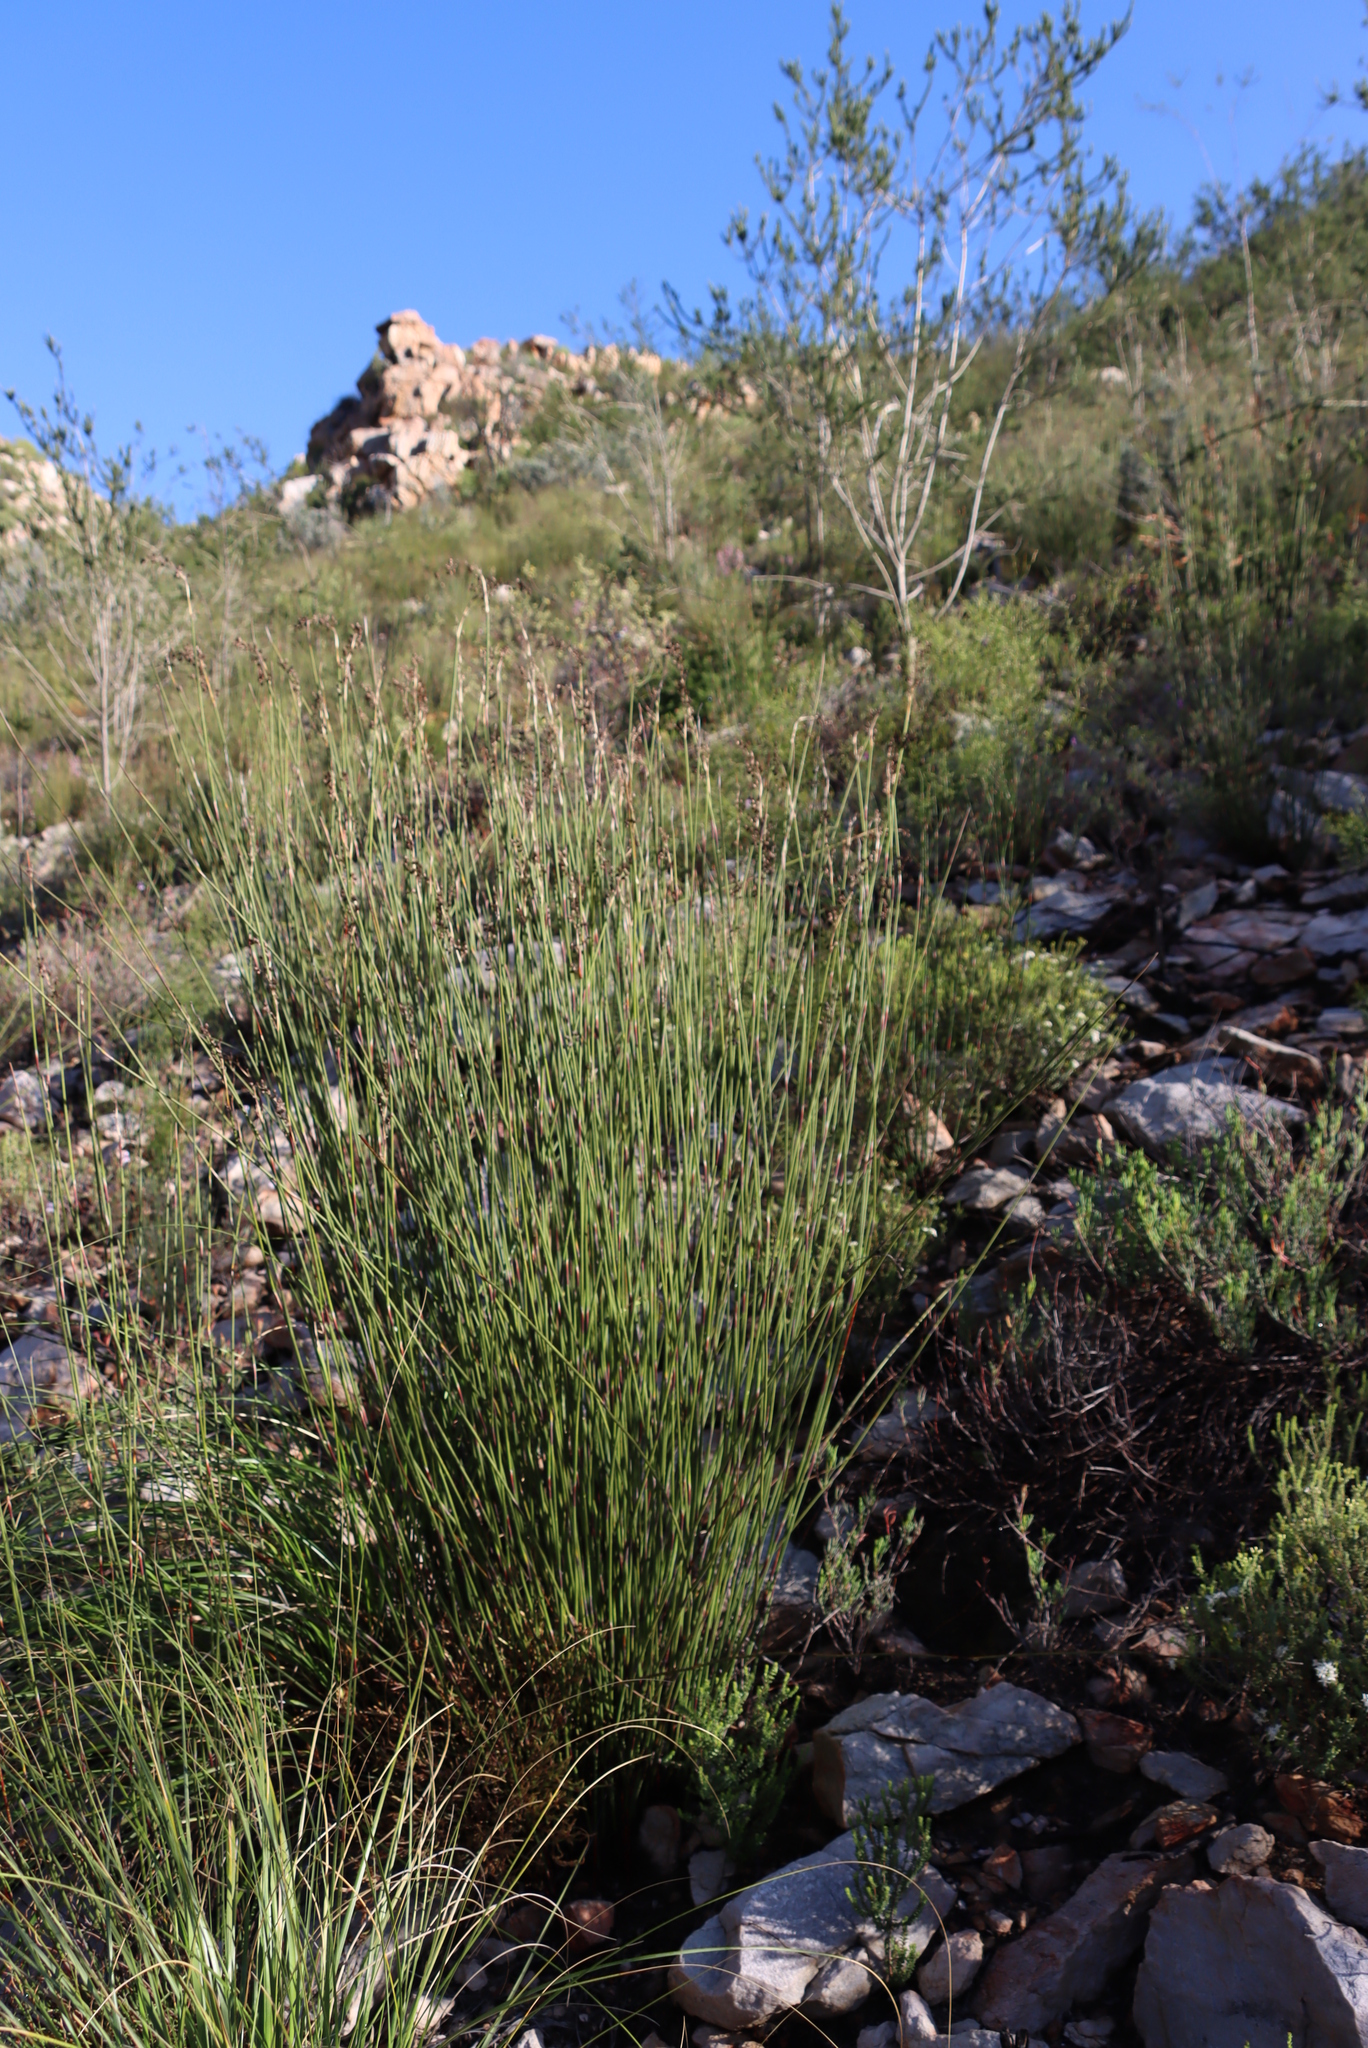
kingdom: Plantae
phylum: Tracheophyta
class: Liliopsida
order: Poales
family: Restionaceae
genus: Cannomois
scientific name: Cannomois scirpoides
